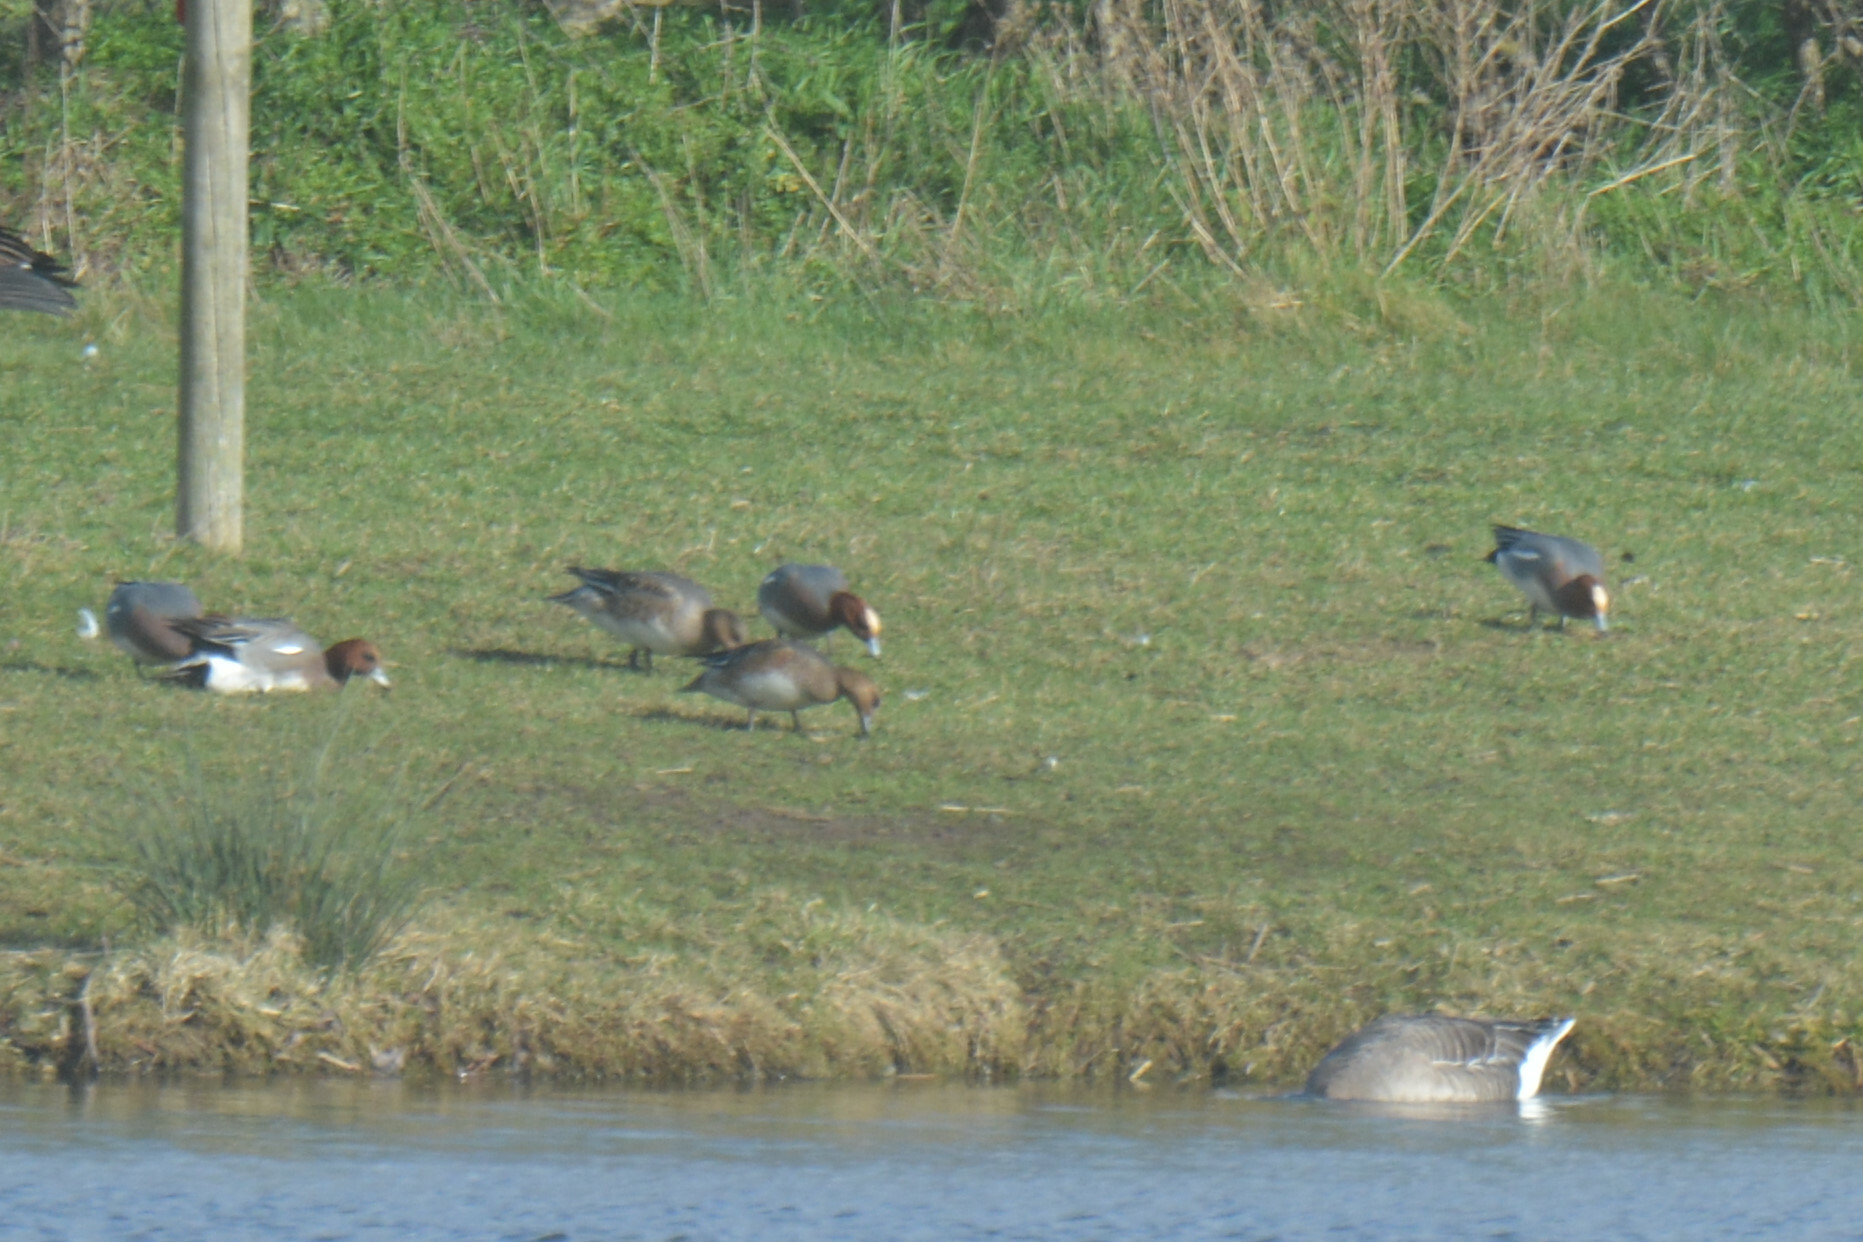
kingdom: Animalia
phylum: Chordata
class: Aves
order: Anseriformes
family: Anatidae
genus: Mareca
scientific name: Mareca penelope
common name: Eurasian wigeon
